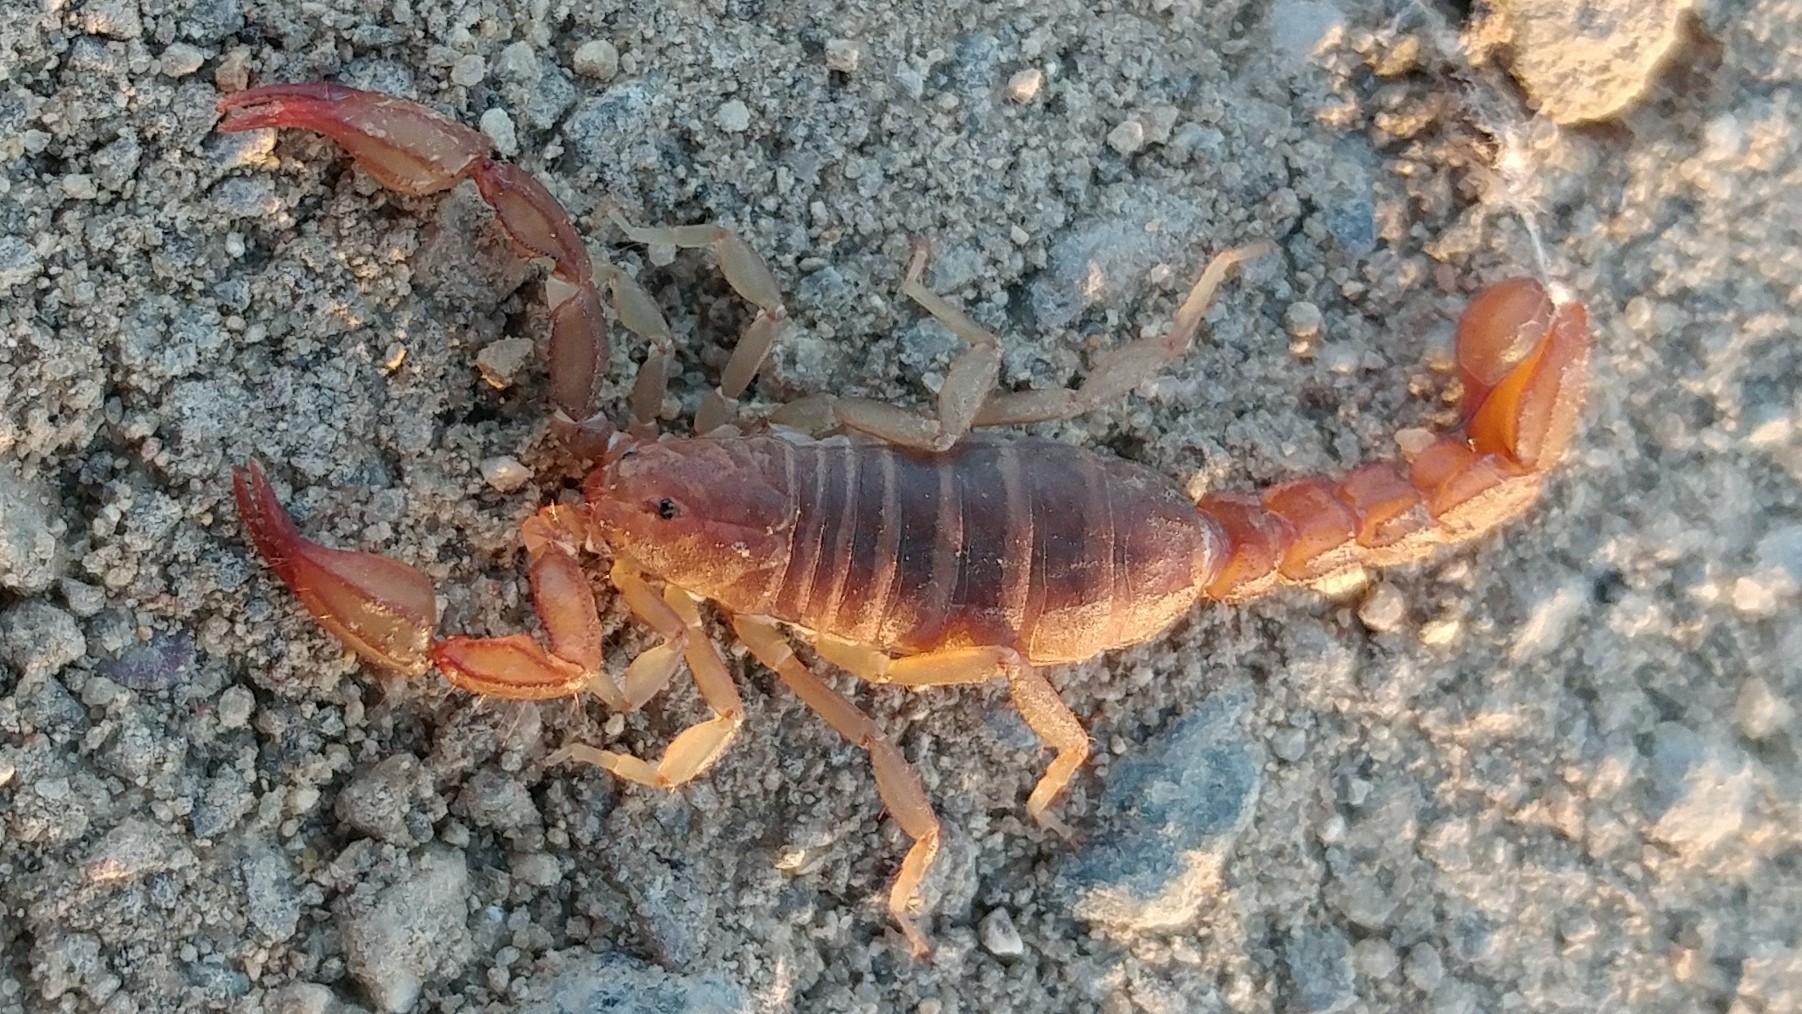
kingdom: Animalia
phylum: Arthropoda
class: Arachnida
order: Scorpiones
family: Vaejovidae
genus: Catalinia
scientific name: Catalinia minima
